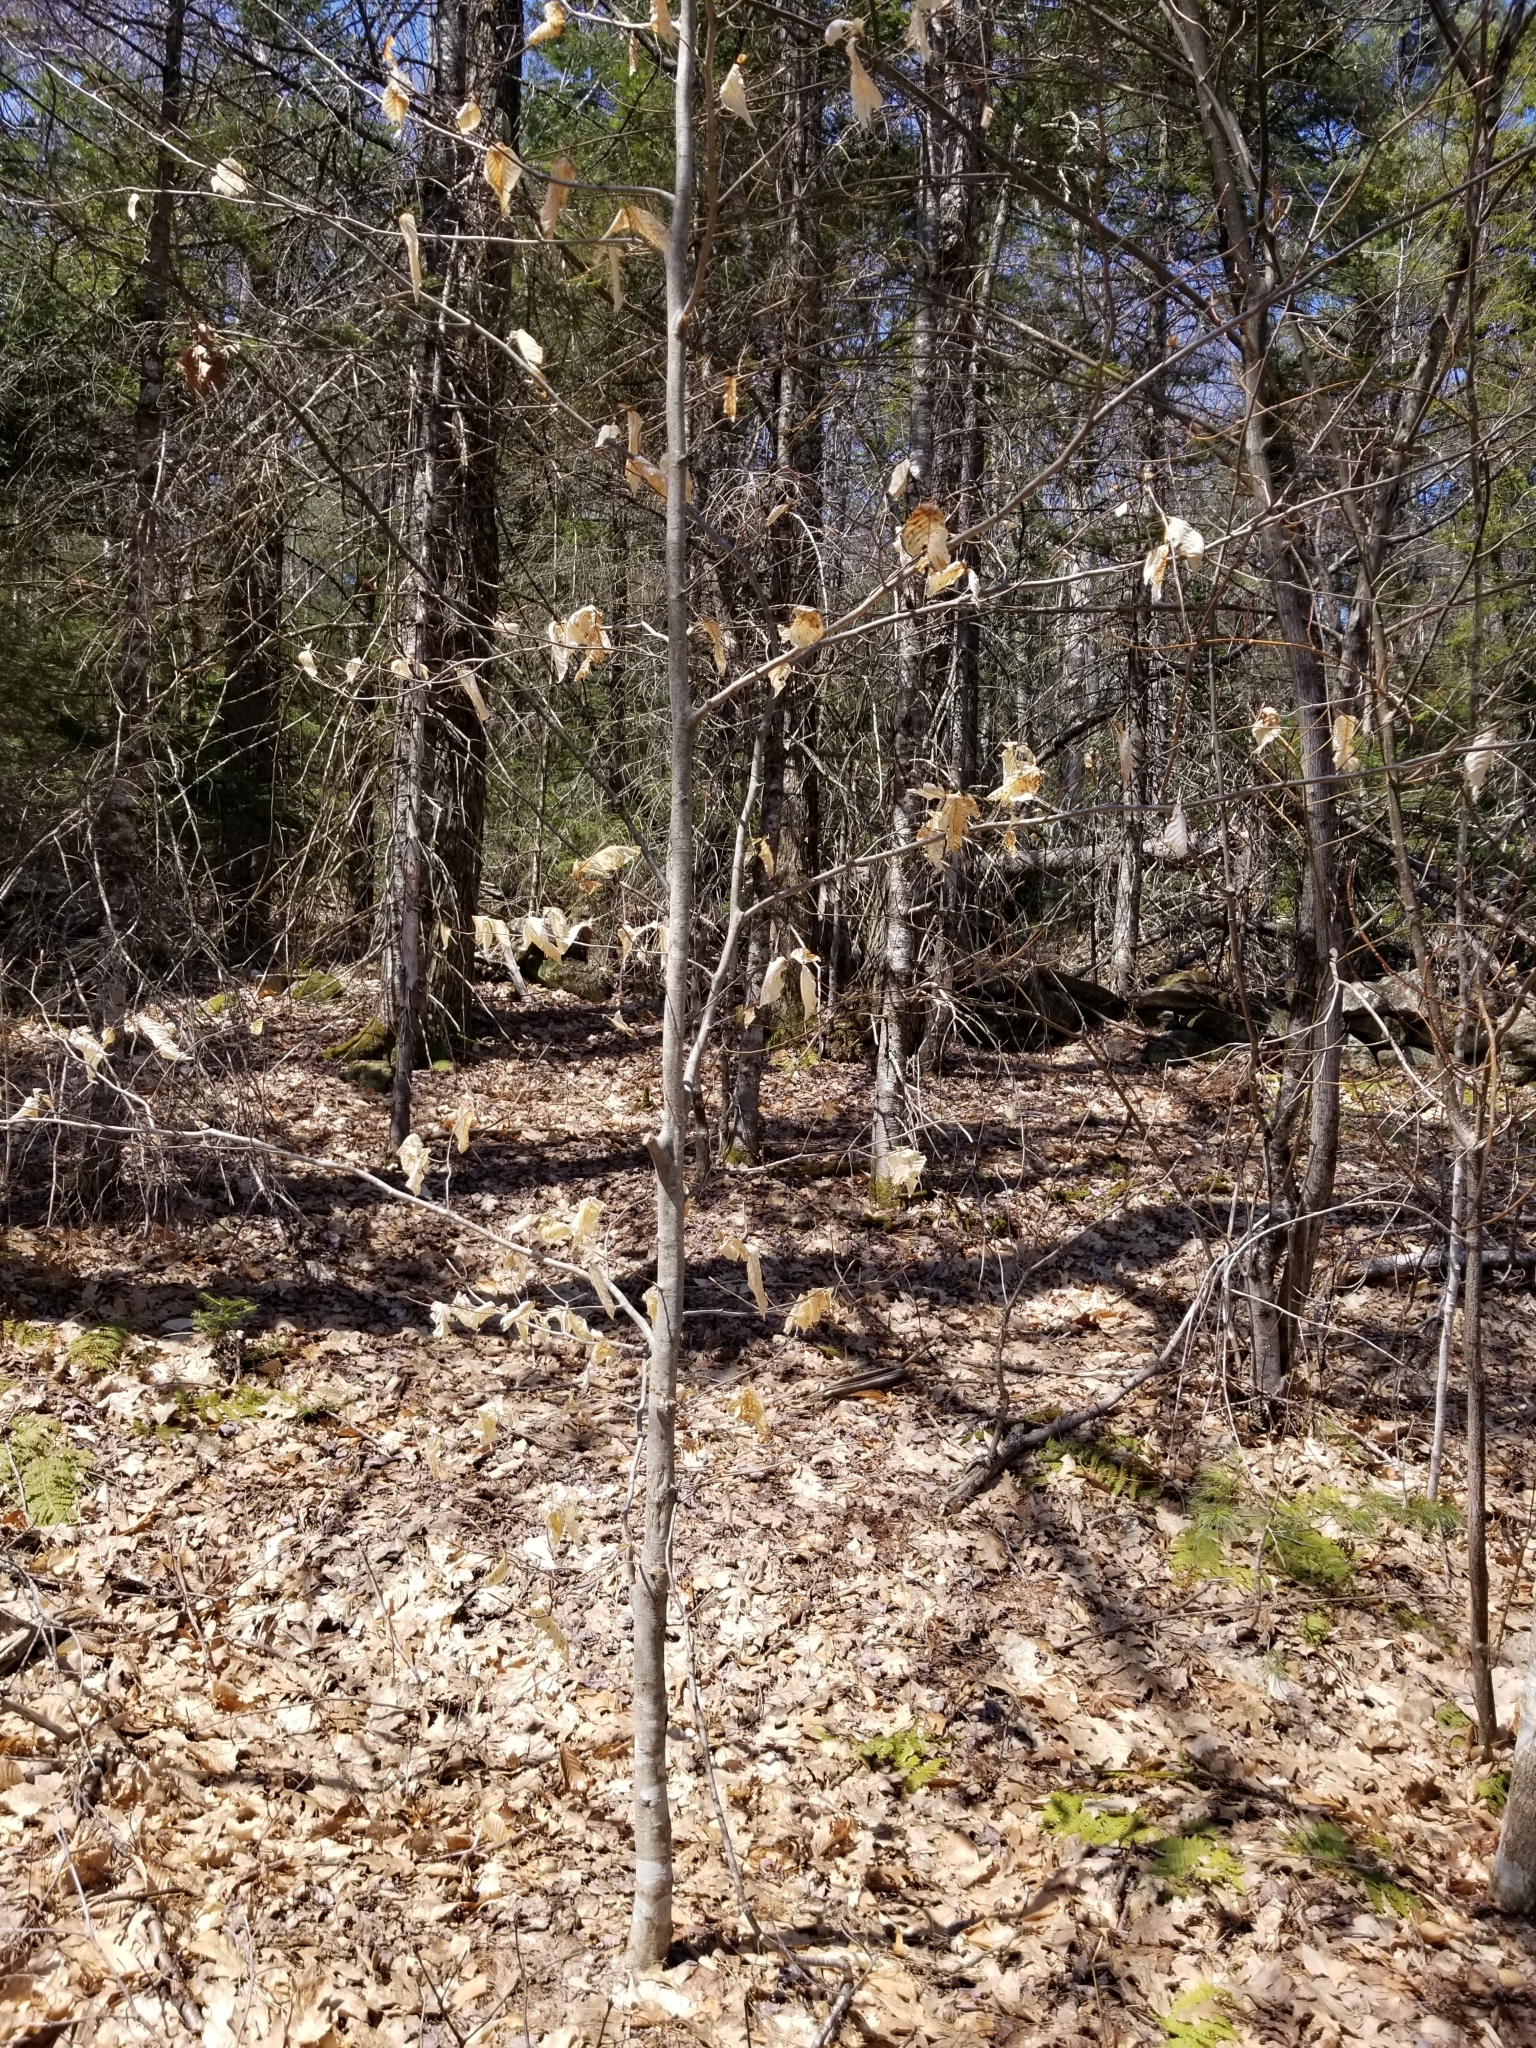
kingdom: Plantae
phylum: Tracheophyta
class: Magnoliopsida
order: Fagales
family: Fagaceae
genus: Fagus
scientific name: Fagus grandifolia
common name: American beech
